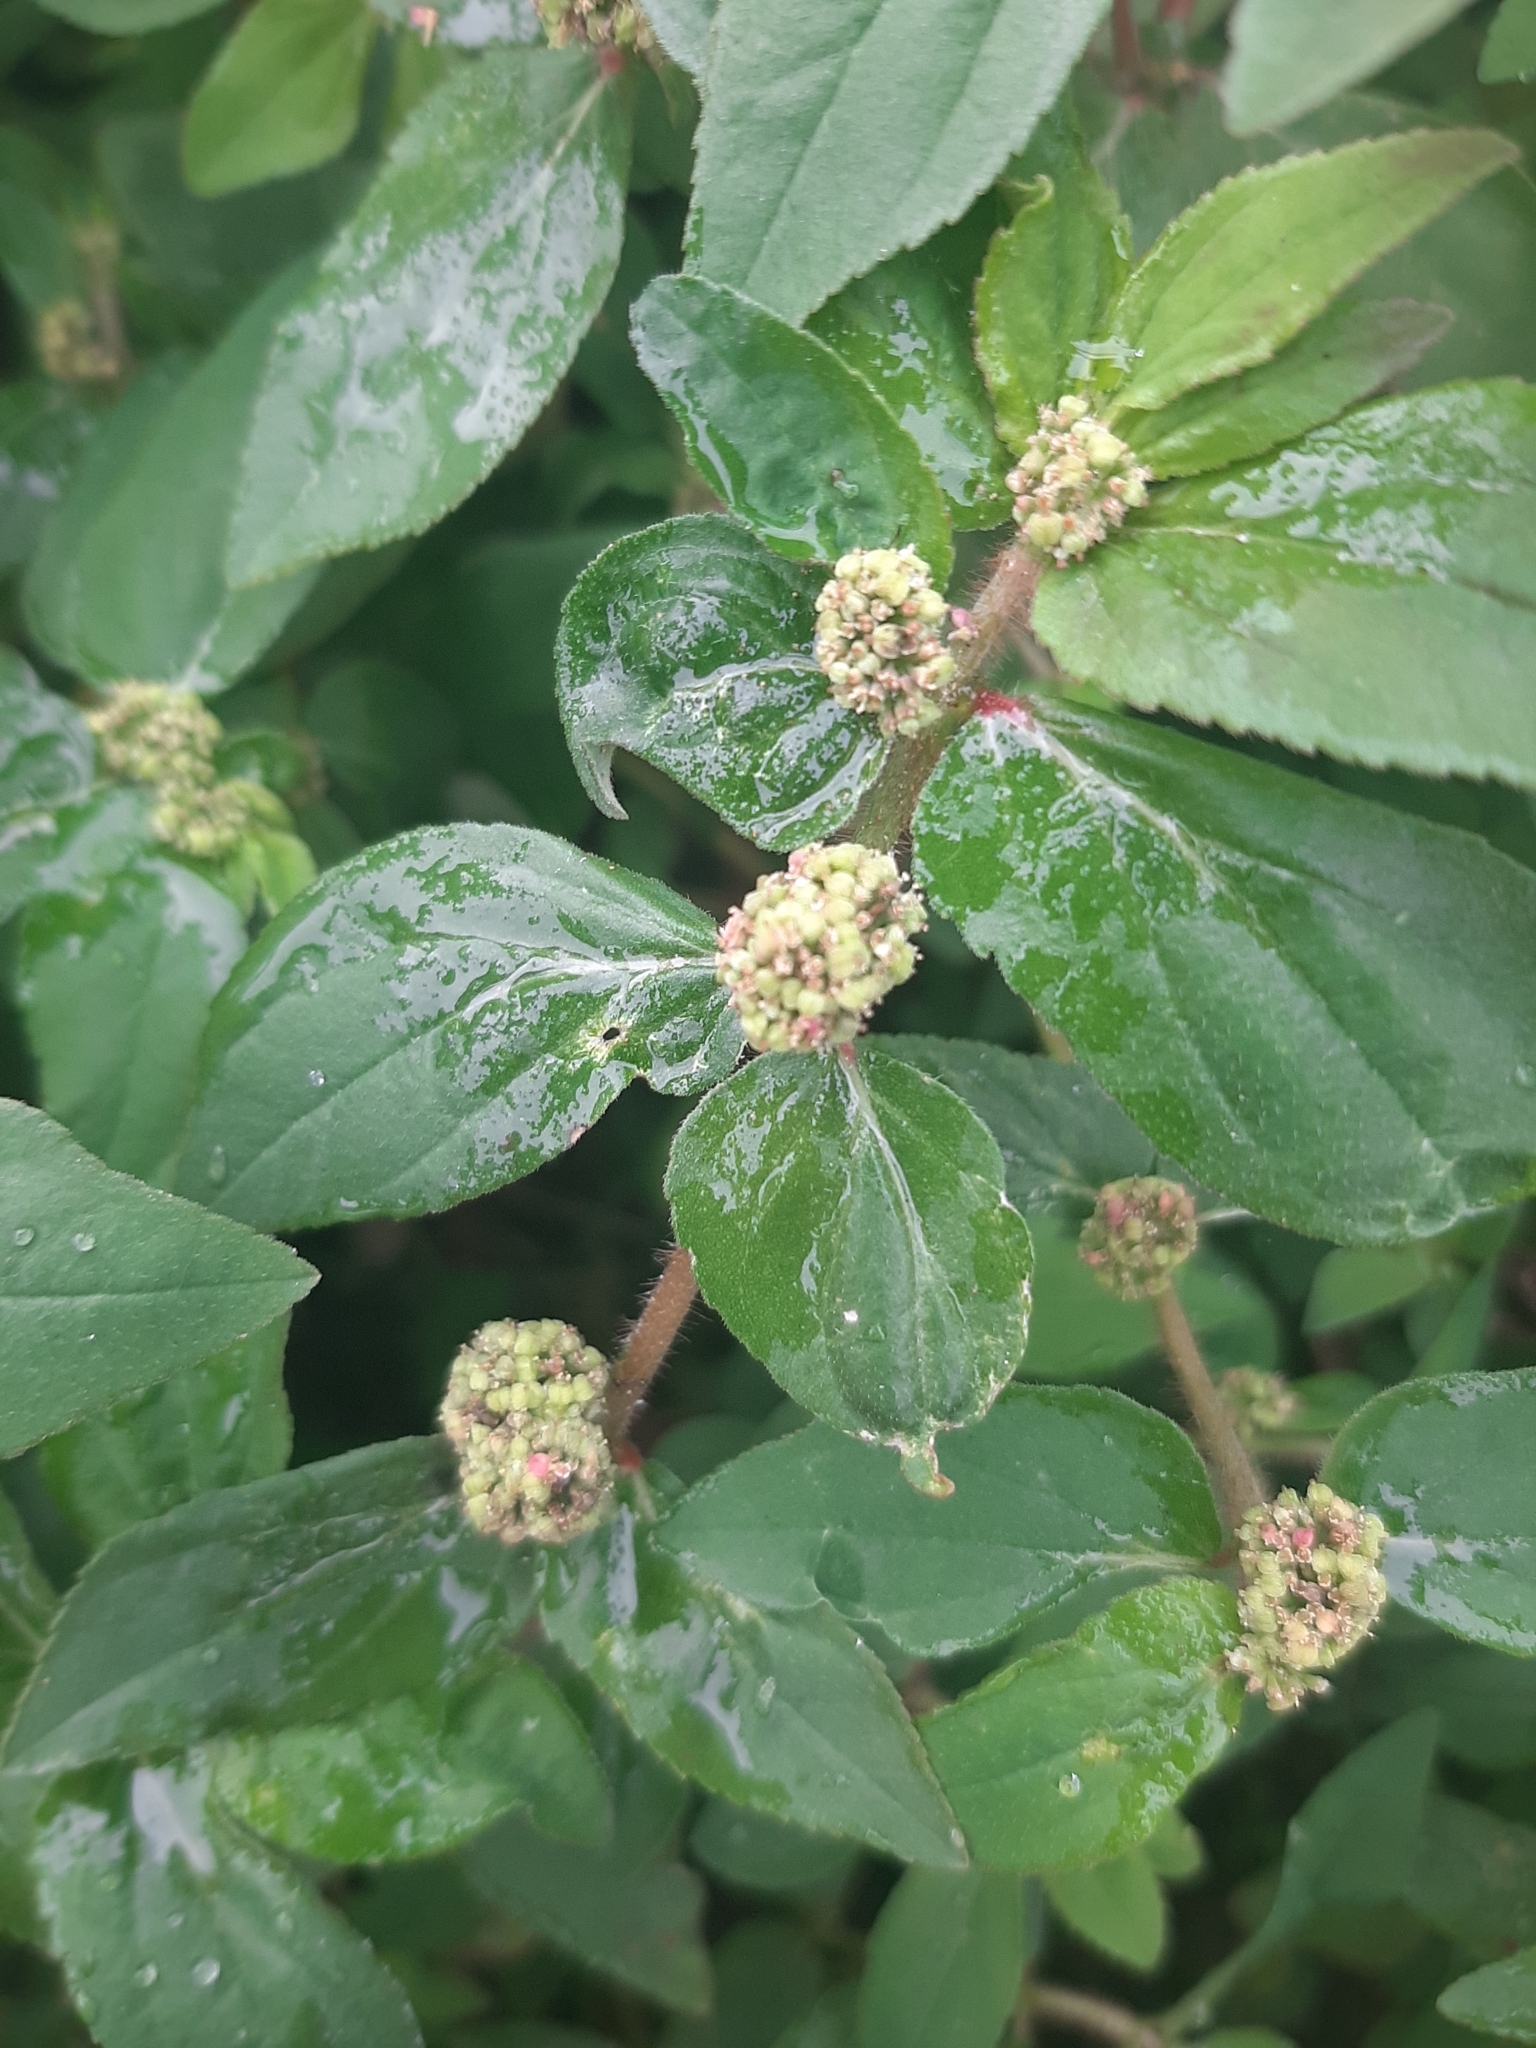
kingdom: Plantae
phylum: Tracheophyta
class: Magnoliopsida
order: Malpighiales
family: Euphorbiaceae
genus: Euphorbia
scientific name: Euphorbia hirta
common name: Pillpod sandmat
